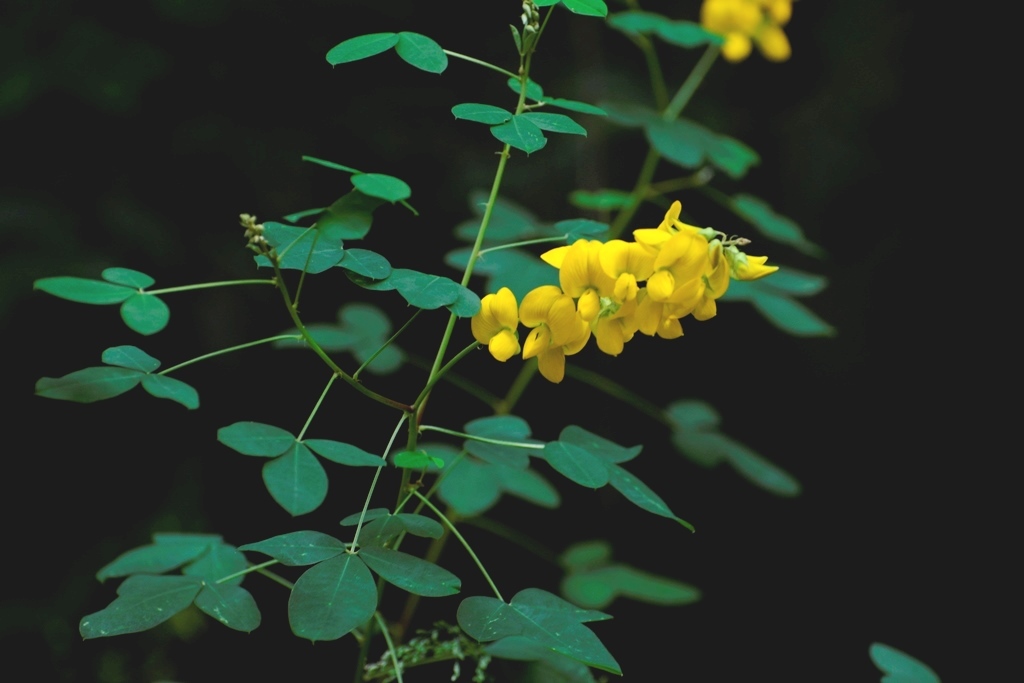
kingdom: Plantae
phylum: Tracheophyta
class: Magnoliopsida
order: Fabales
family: Fabaceae
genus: Crotalaria
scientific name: Crotalaria longirostrata
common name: Longbeak rattlebox
